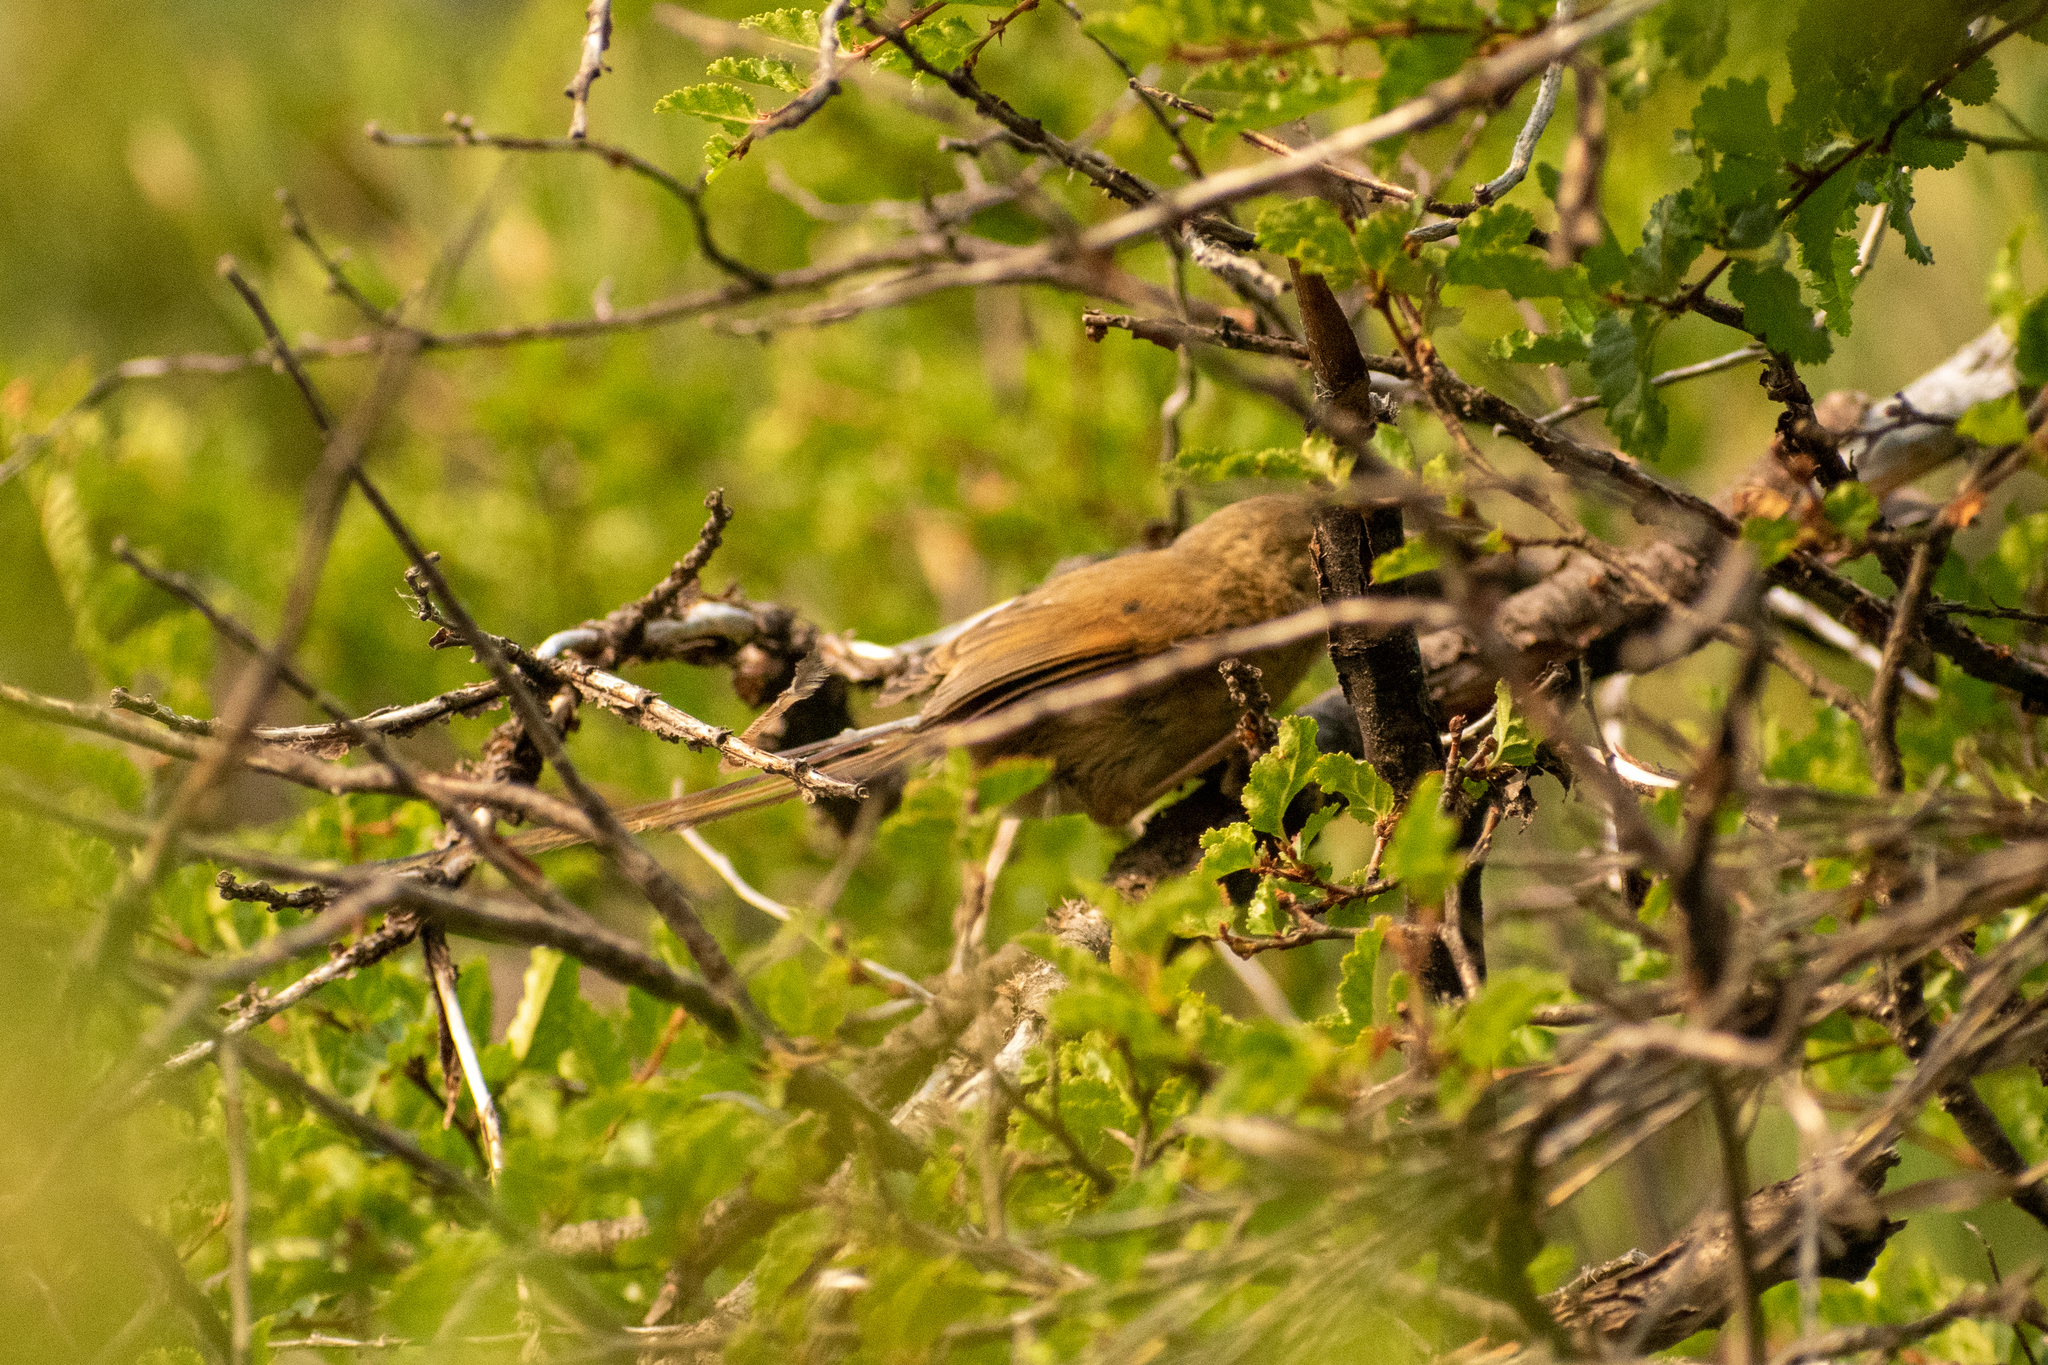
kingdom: Animalia
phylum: Chordata
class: Aves
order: Passeriformes
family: Furnariidae
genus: Sylviorthorhynchus
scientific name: Sylviorthorhynchus desmursii
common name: Des murs's wiretail
